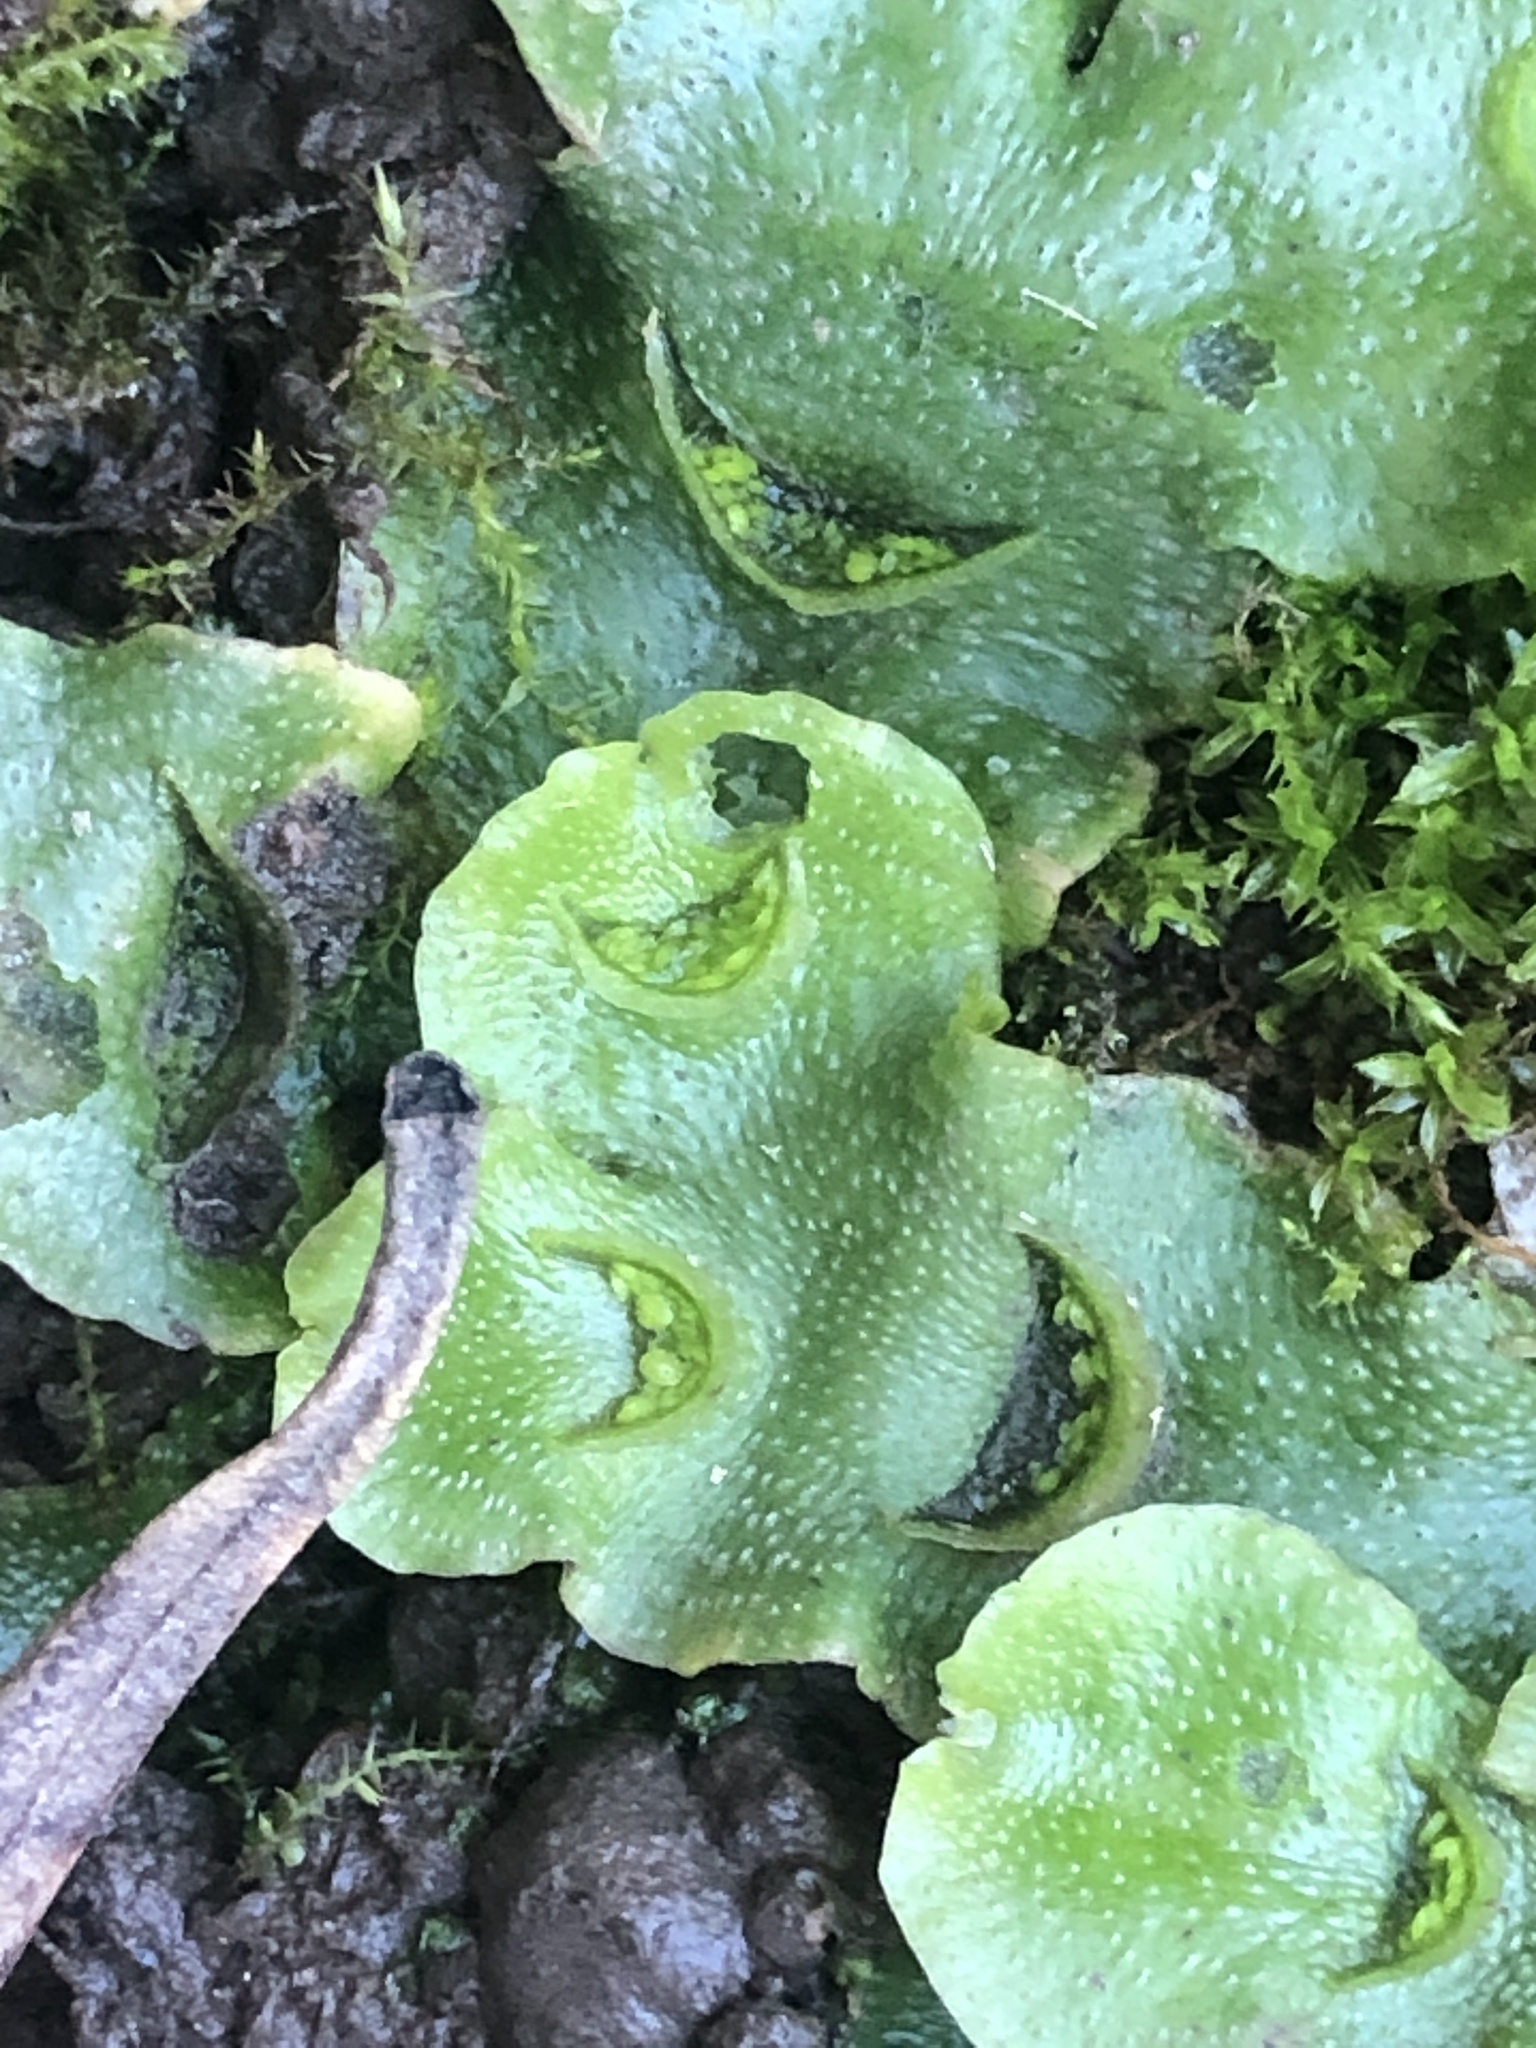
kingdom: Plantae
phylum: Marchantiophyta
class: Marchantiopsida
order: Lunulariales
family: Lunulariaceae
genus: Lunularia
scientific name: Lunularia cruciata
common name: Crescent-cup liverwort
